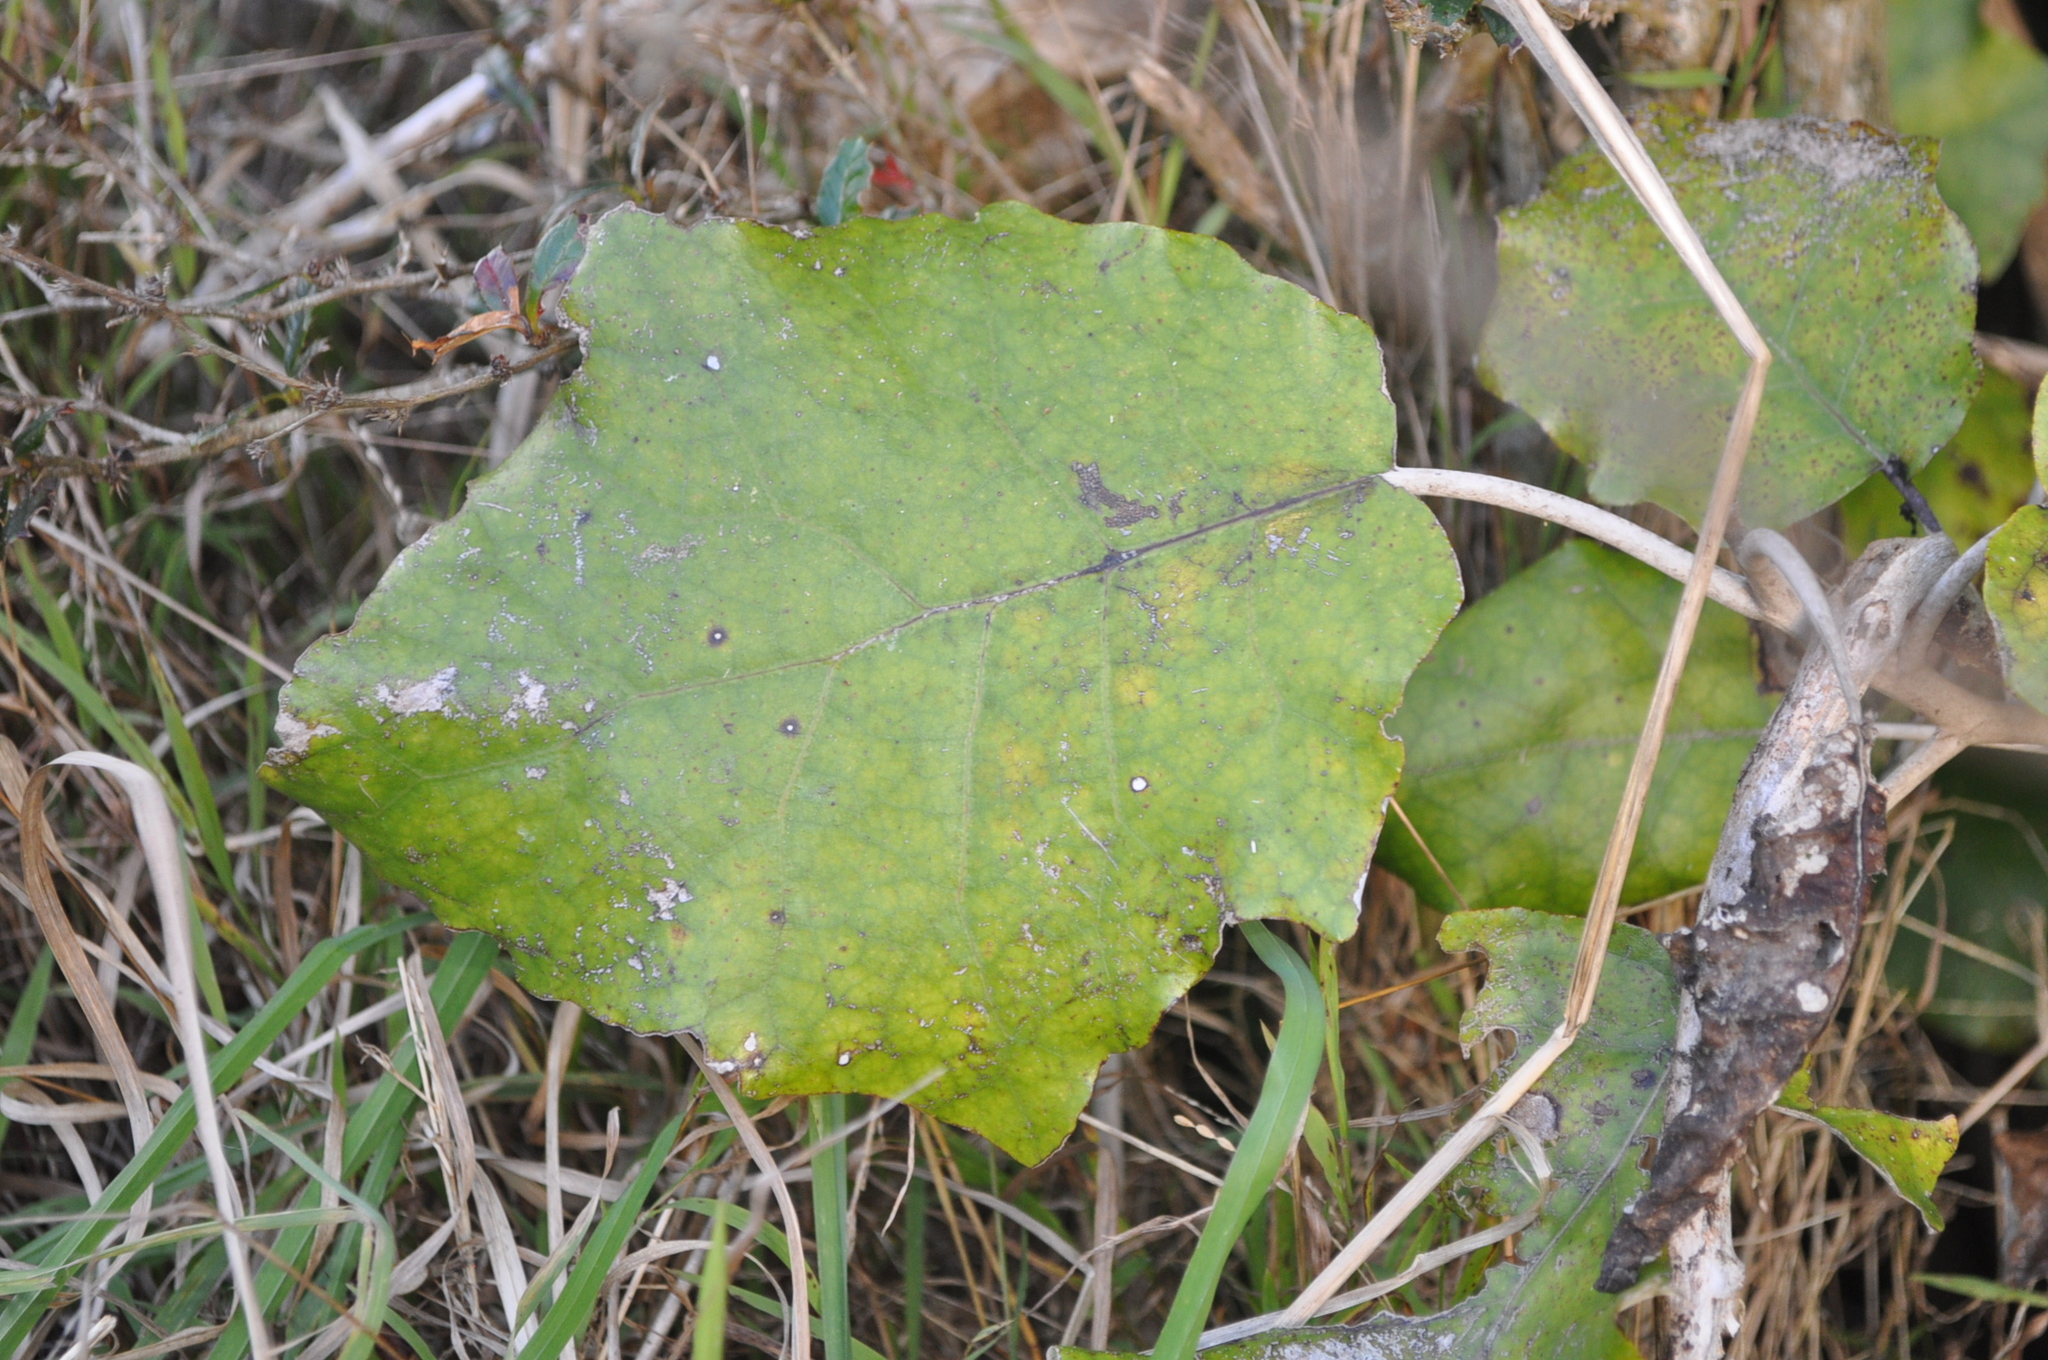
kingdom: Plantae
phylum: Tracheophyta
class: Magnoliopsida
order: Asterales
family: Asteraceae
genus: Brachyglottis
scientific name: Brachyglottis repanda
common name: Hedge ragwort
